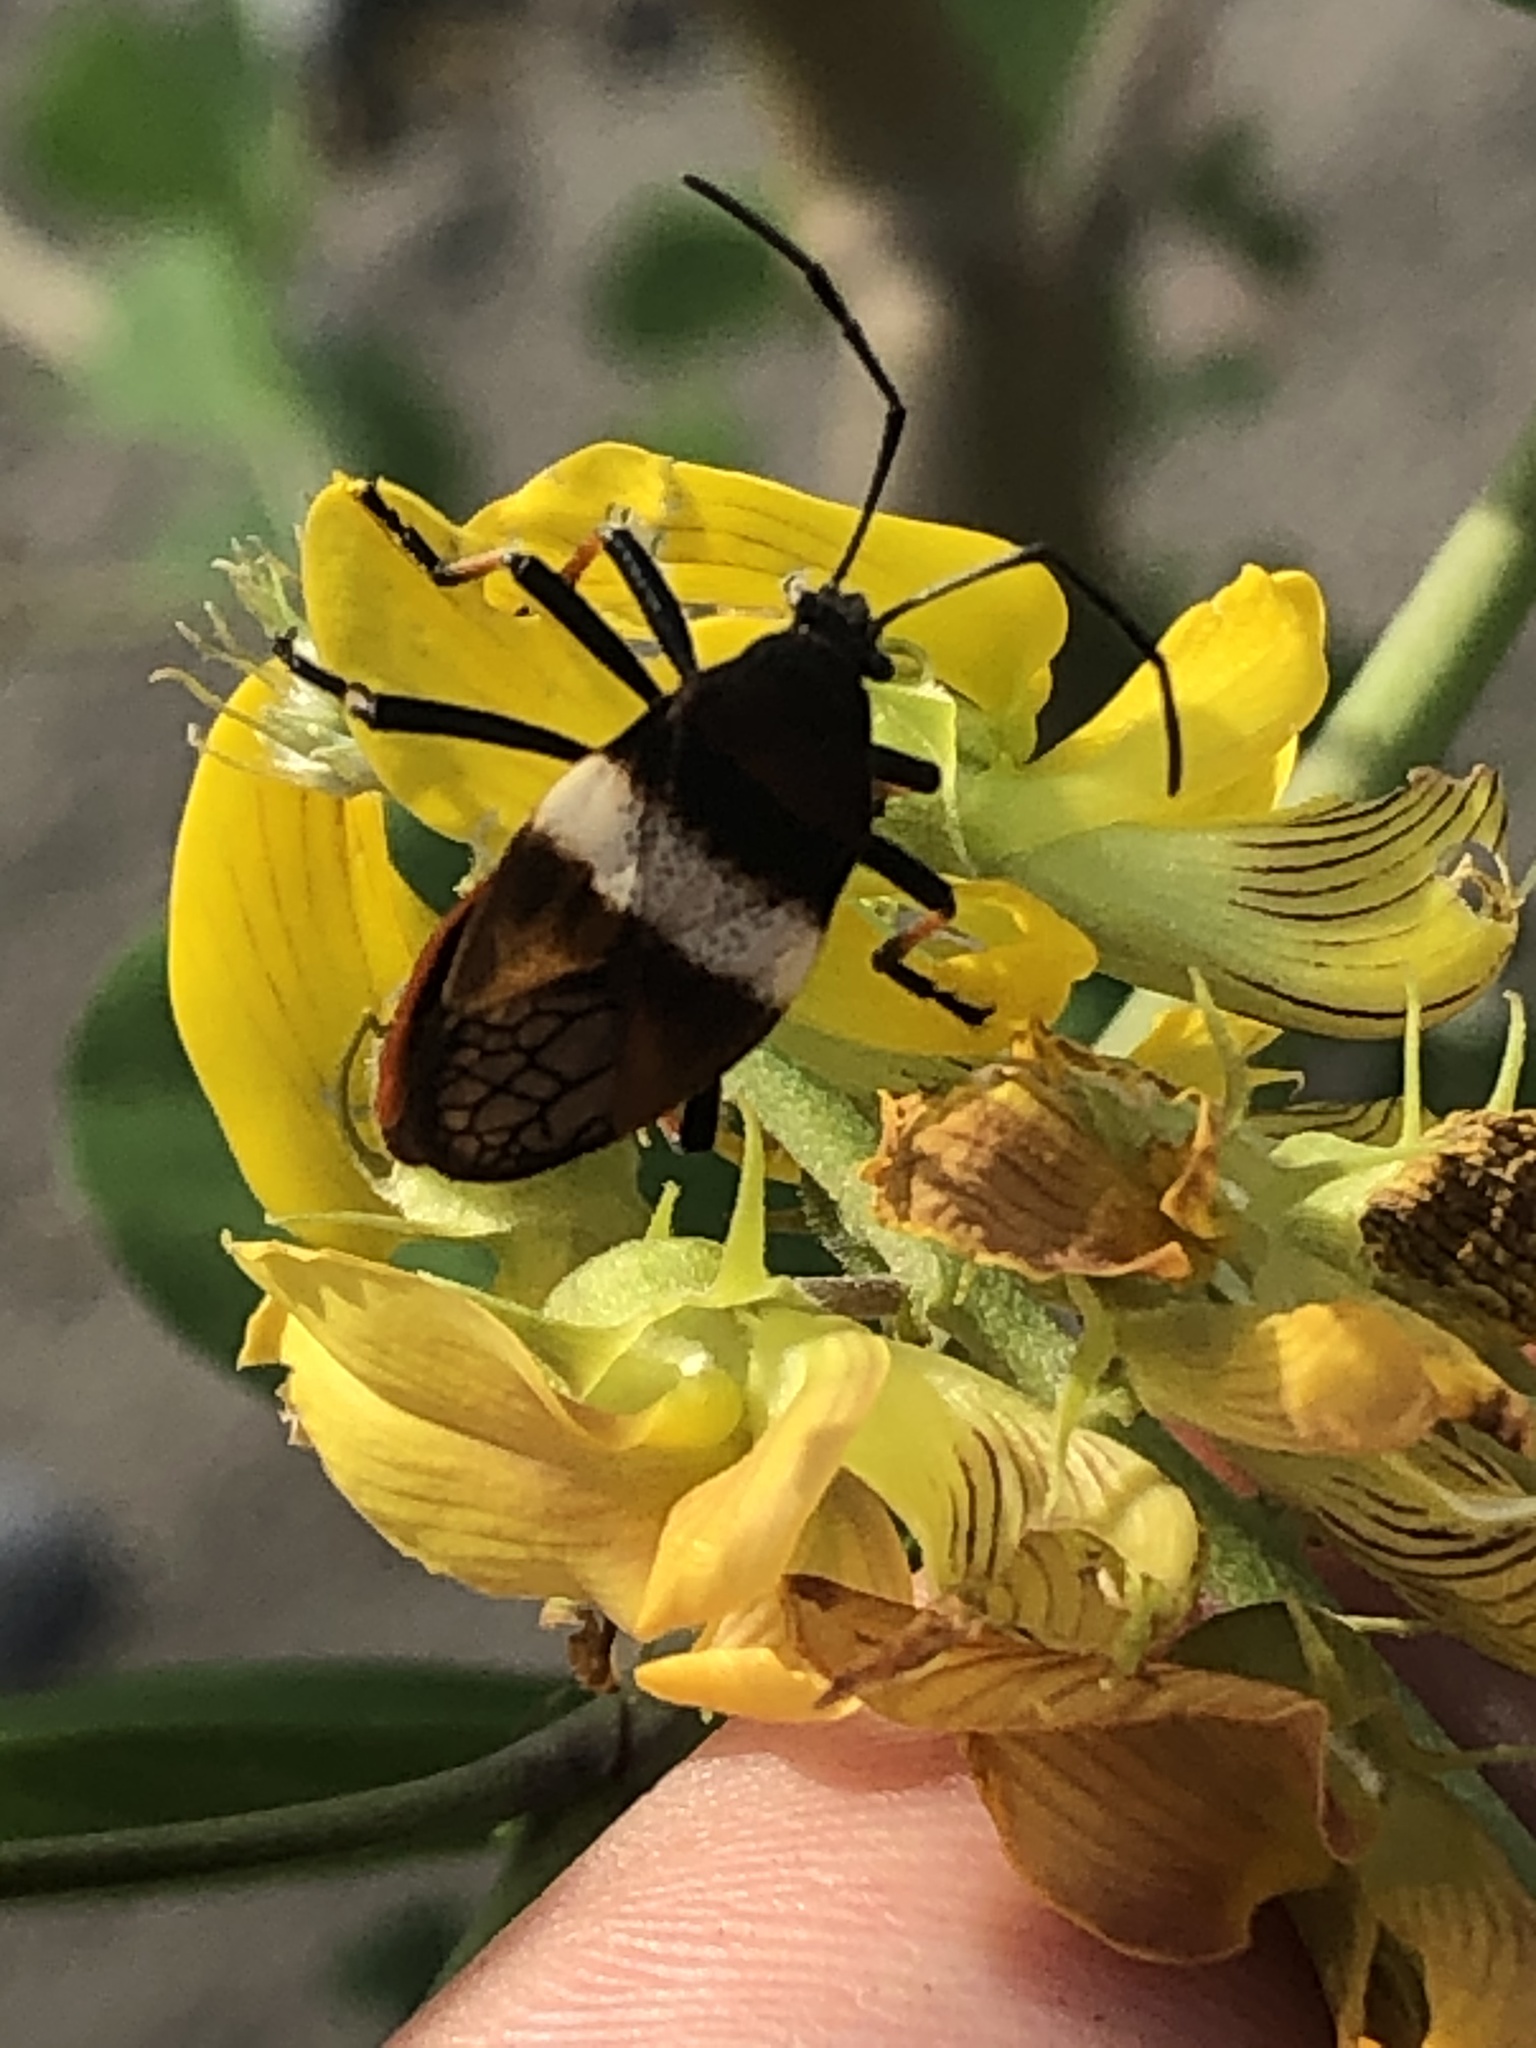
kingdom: Animalia
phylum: Arthropoda
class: Insecta
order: Hemiptera
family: Largidae
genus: Largus
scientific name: Largus balteatus
